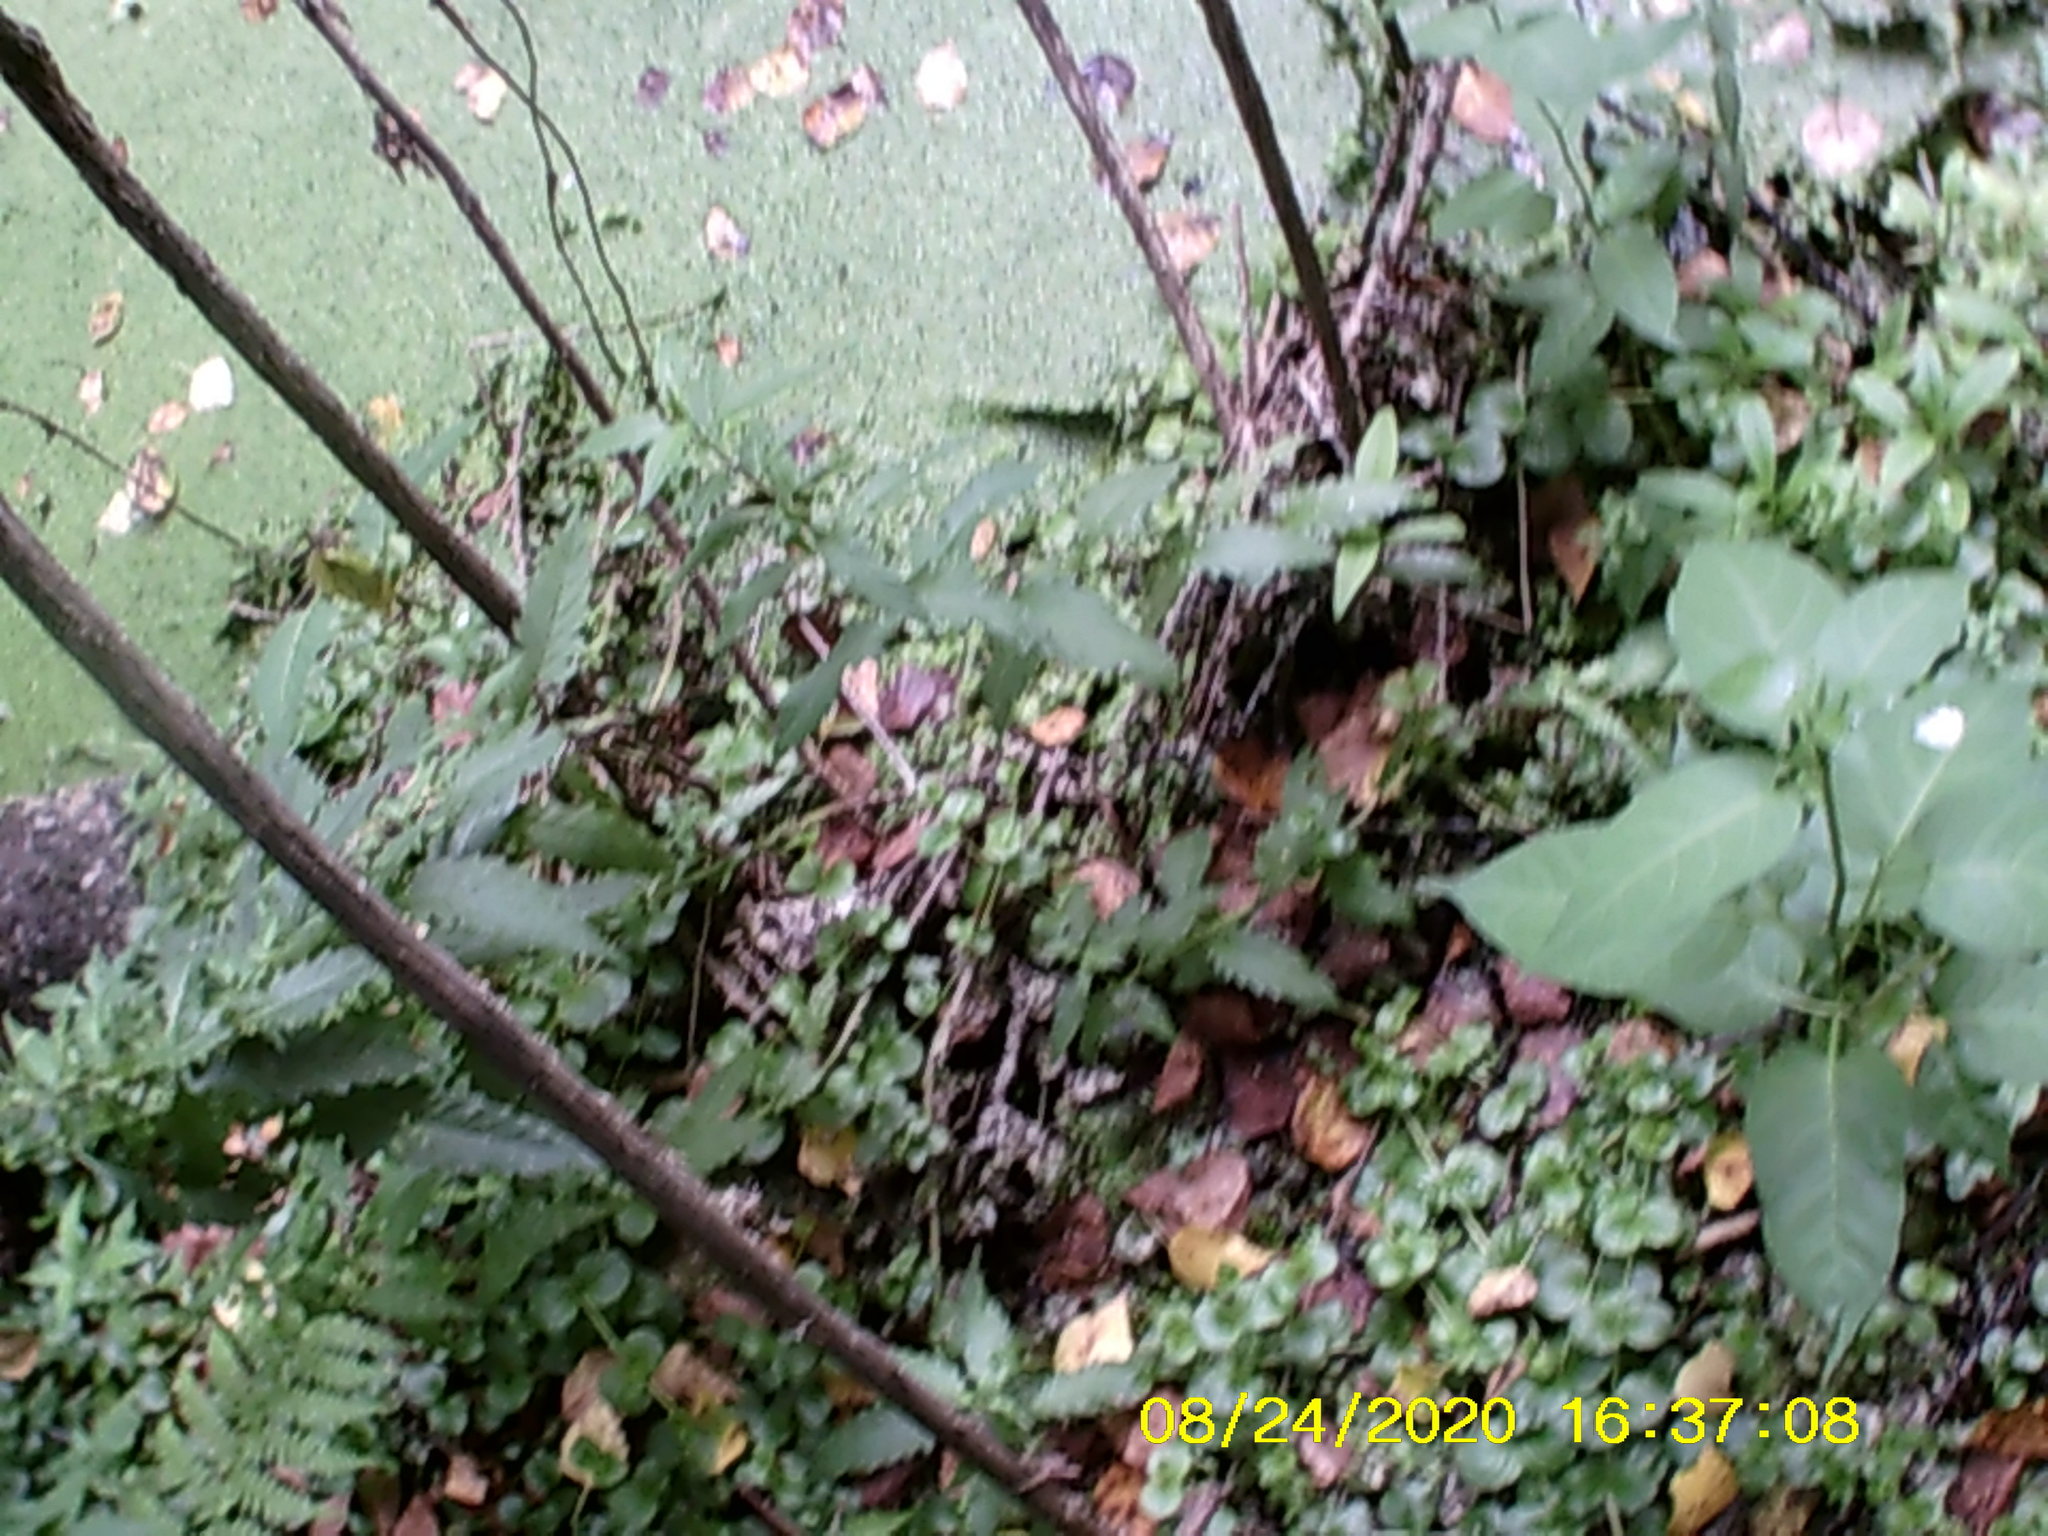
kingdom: Plantae
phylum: Tracheophyta
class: Magnoliopsida
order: Lamiales
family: Lamiaceae
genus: Lycopus
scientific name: Lycopus europaeus
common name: European bugleweed
